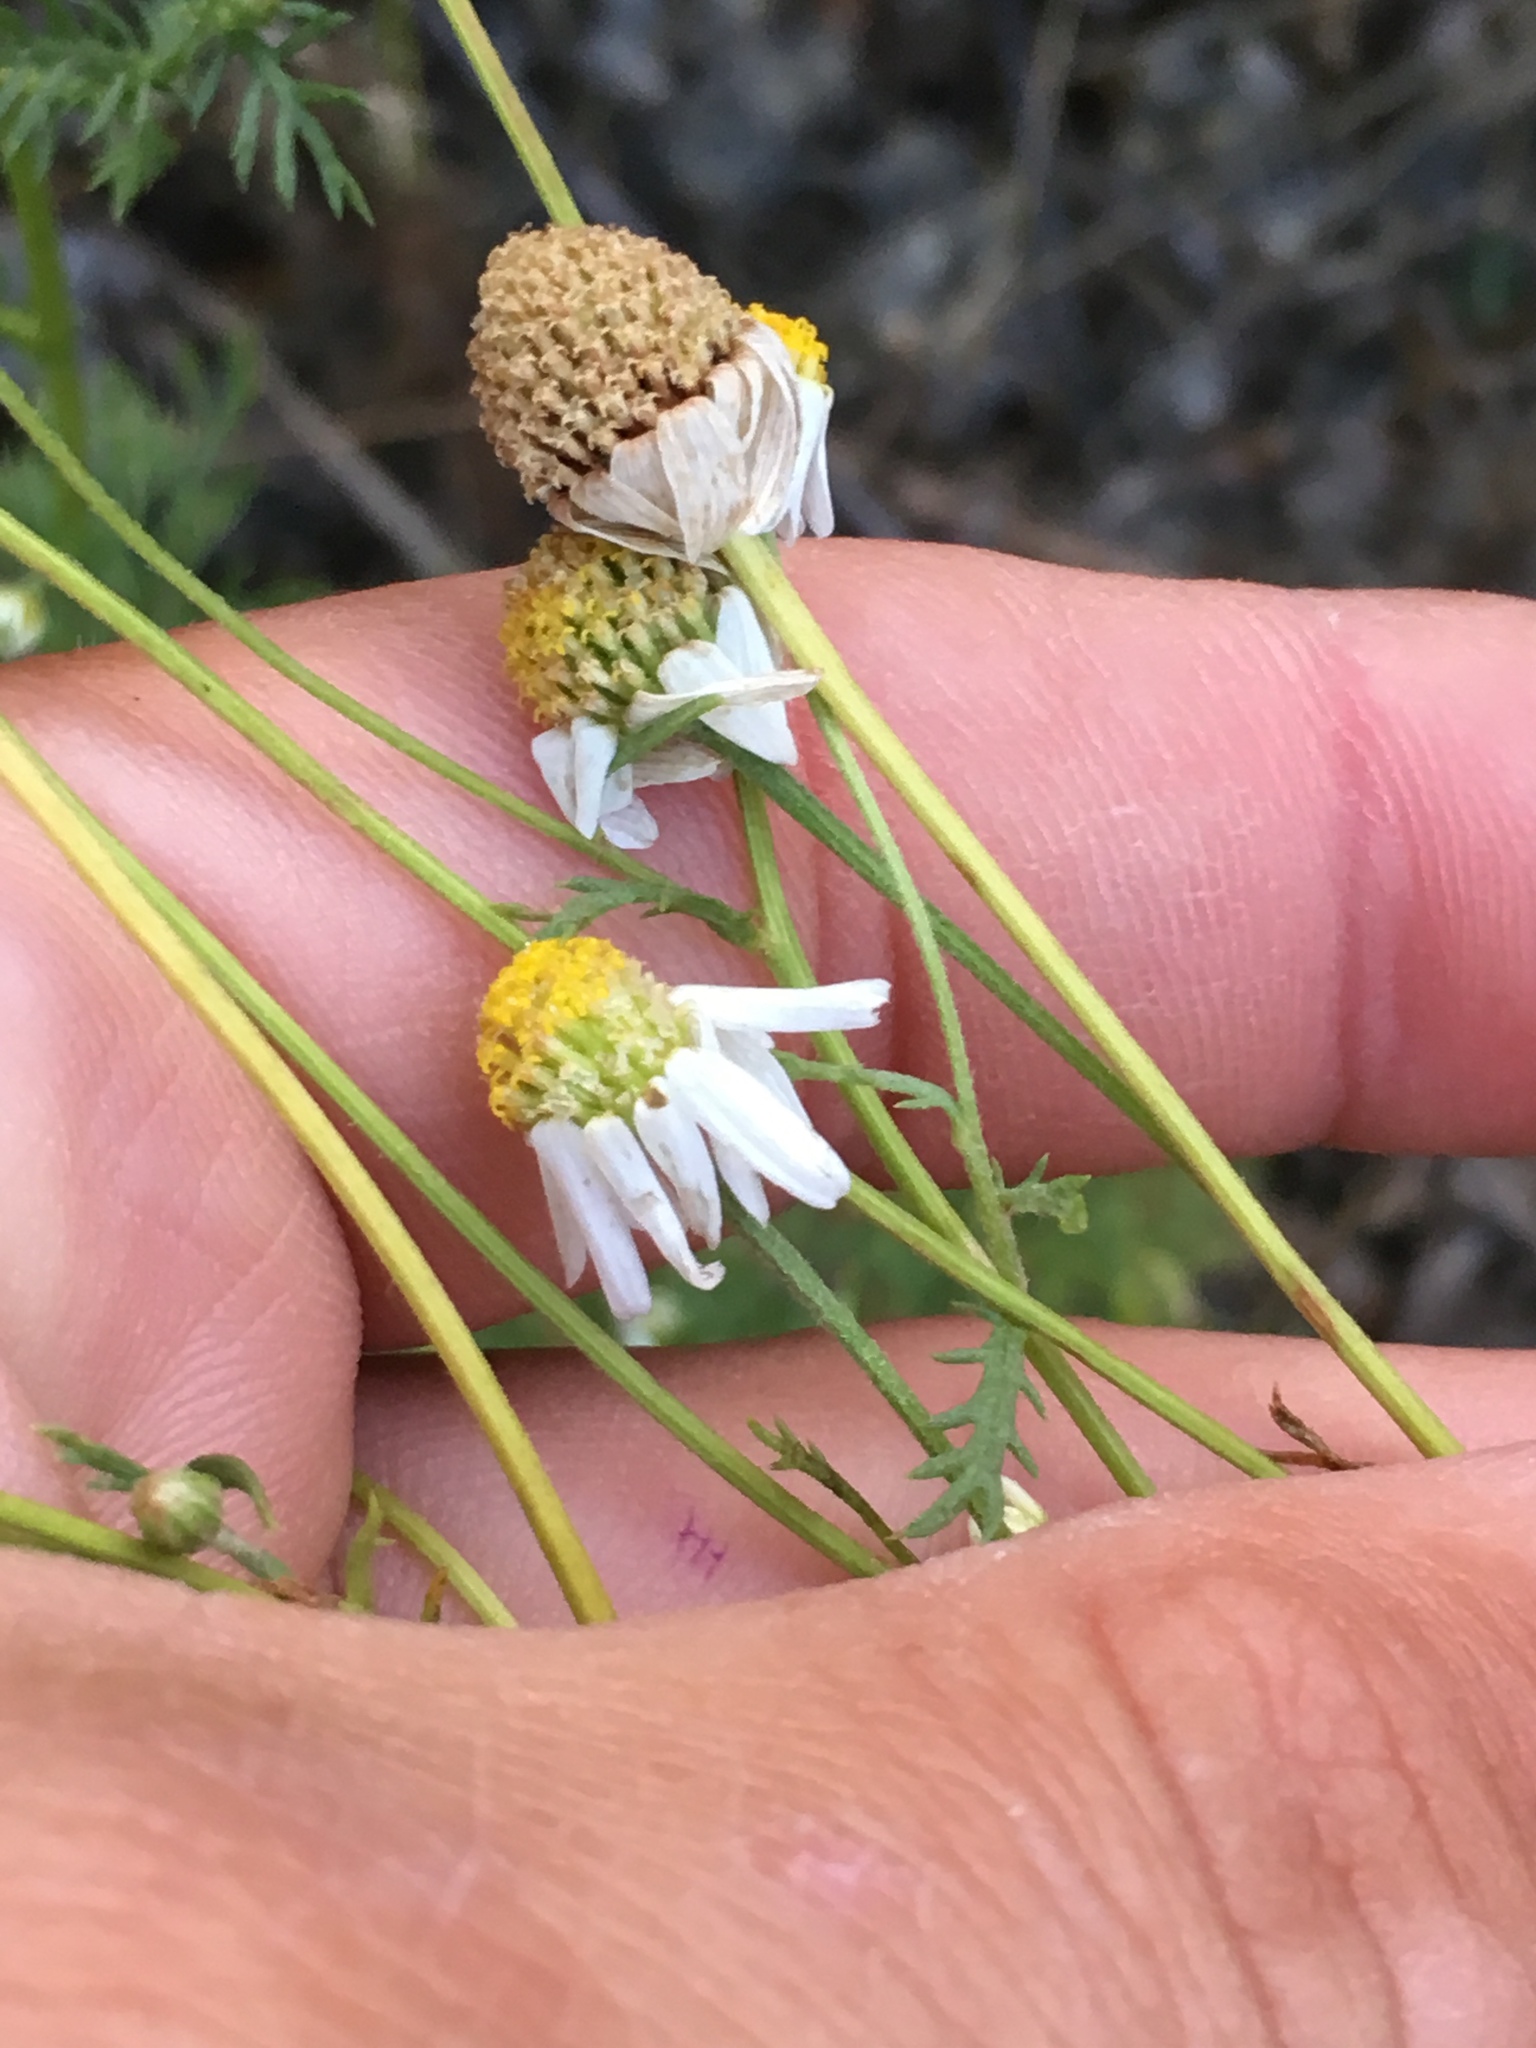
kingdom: Plantae
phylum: Tracheophyta
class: Magnoliopsida
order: Asterales
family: Asteraceae
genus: Anthemis
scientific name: Anthemis cotula
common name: Stinking chamomile
